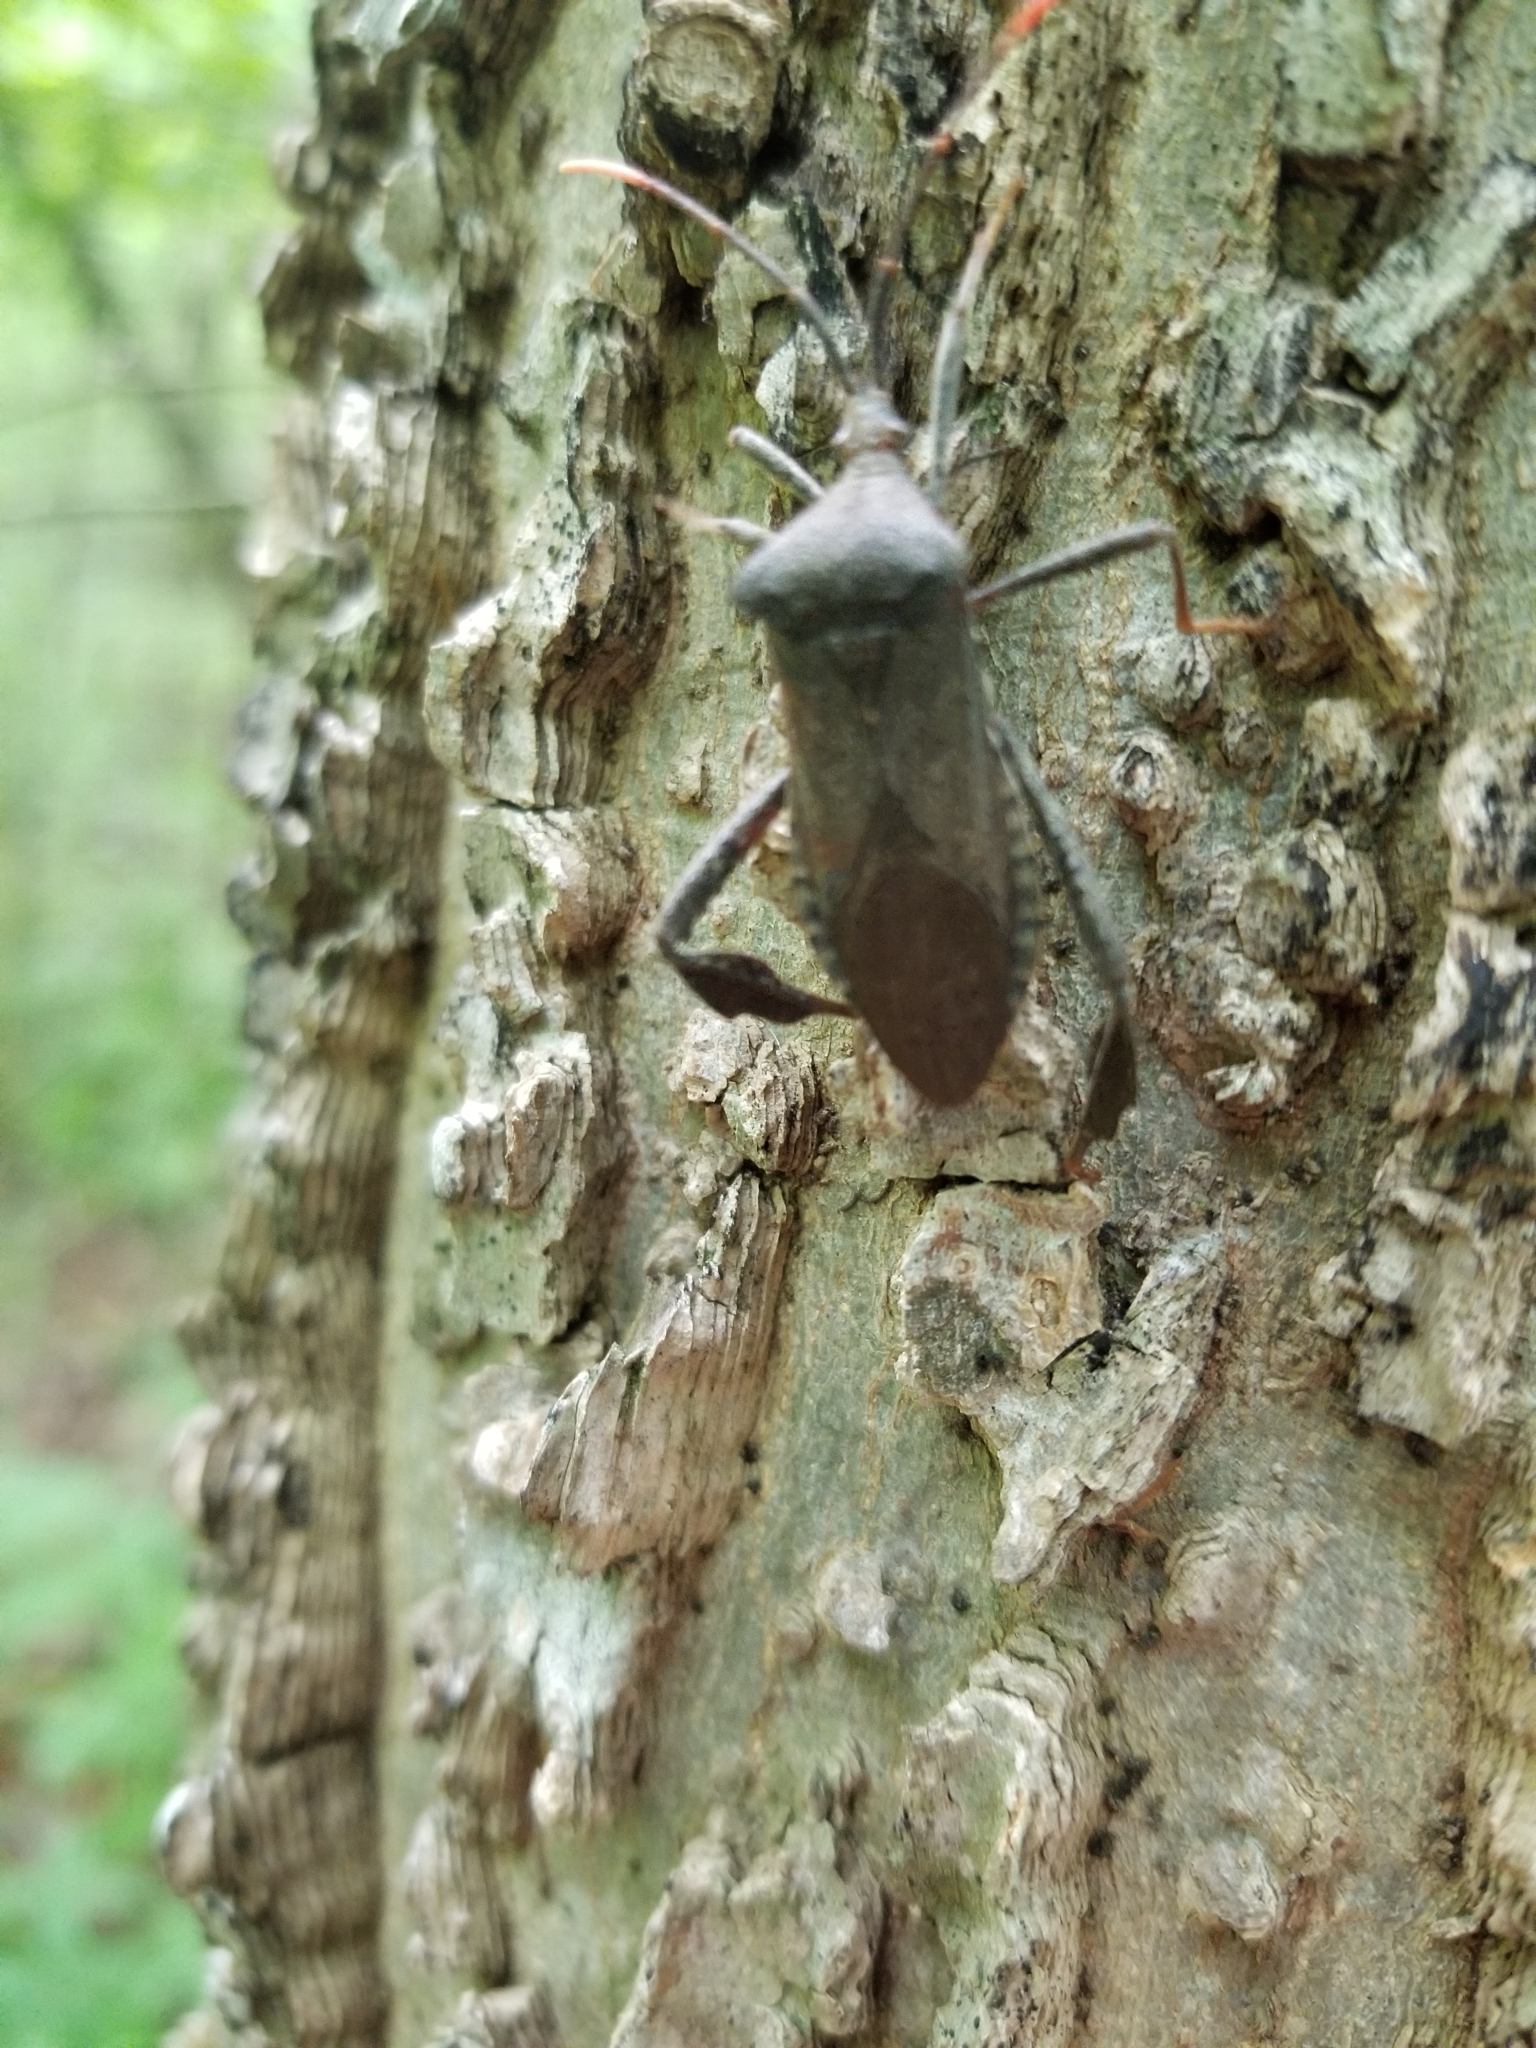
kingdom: Animalia
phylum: Arthropoda
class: Insecta
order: Hemiptera
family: Coreidae
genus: Acanthocephala
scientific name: Acanthocephala terminalis
